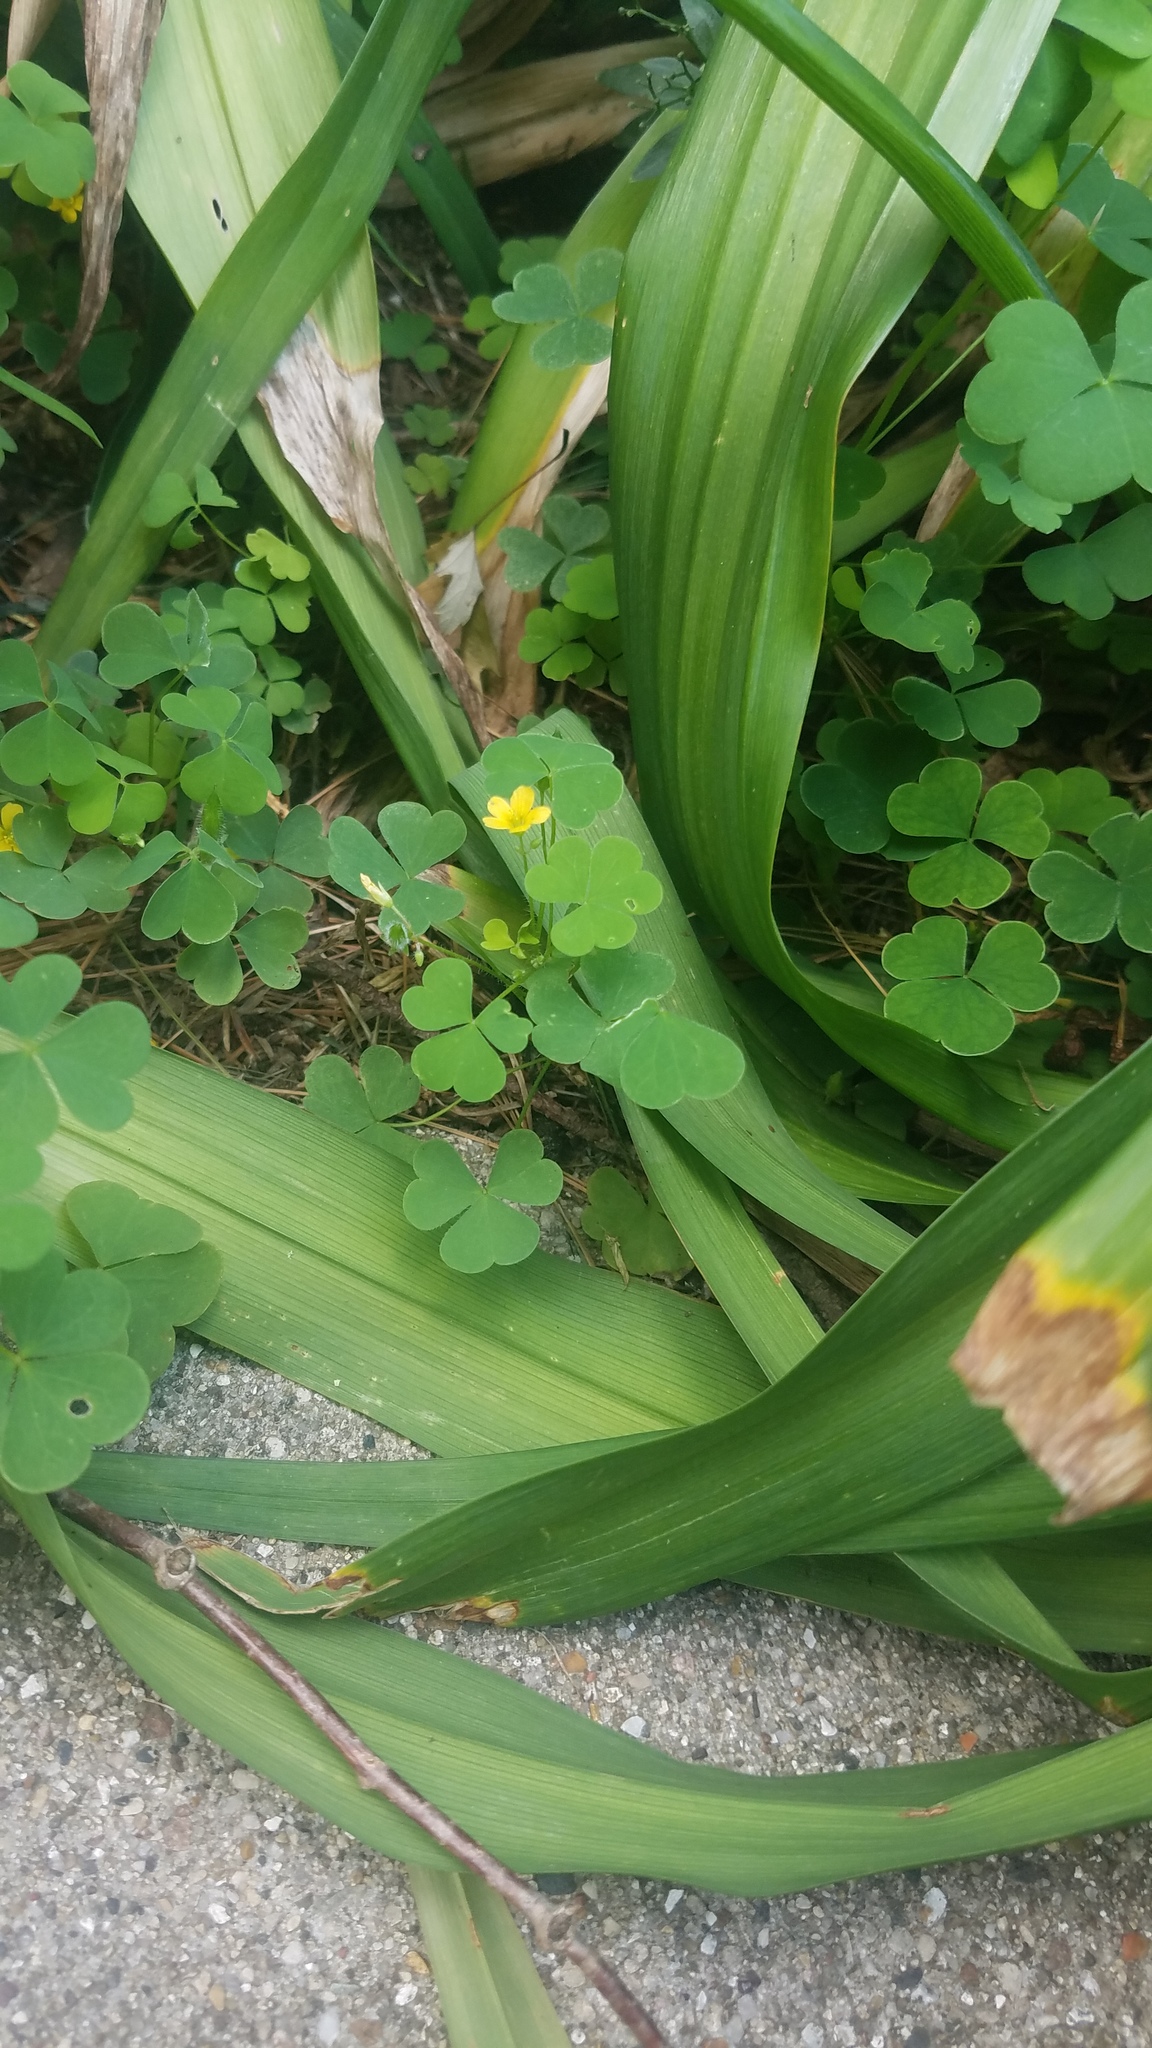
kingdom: Plantae
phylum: Tracheophyta
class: Magnoliopsida
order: Oxalidales
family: Oxalidaceae
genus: Oxalis
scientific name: Oxalis stricta
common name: Upright yellow-sorrel
